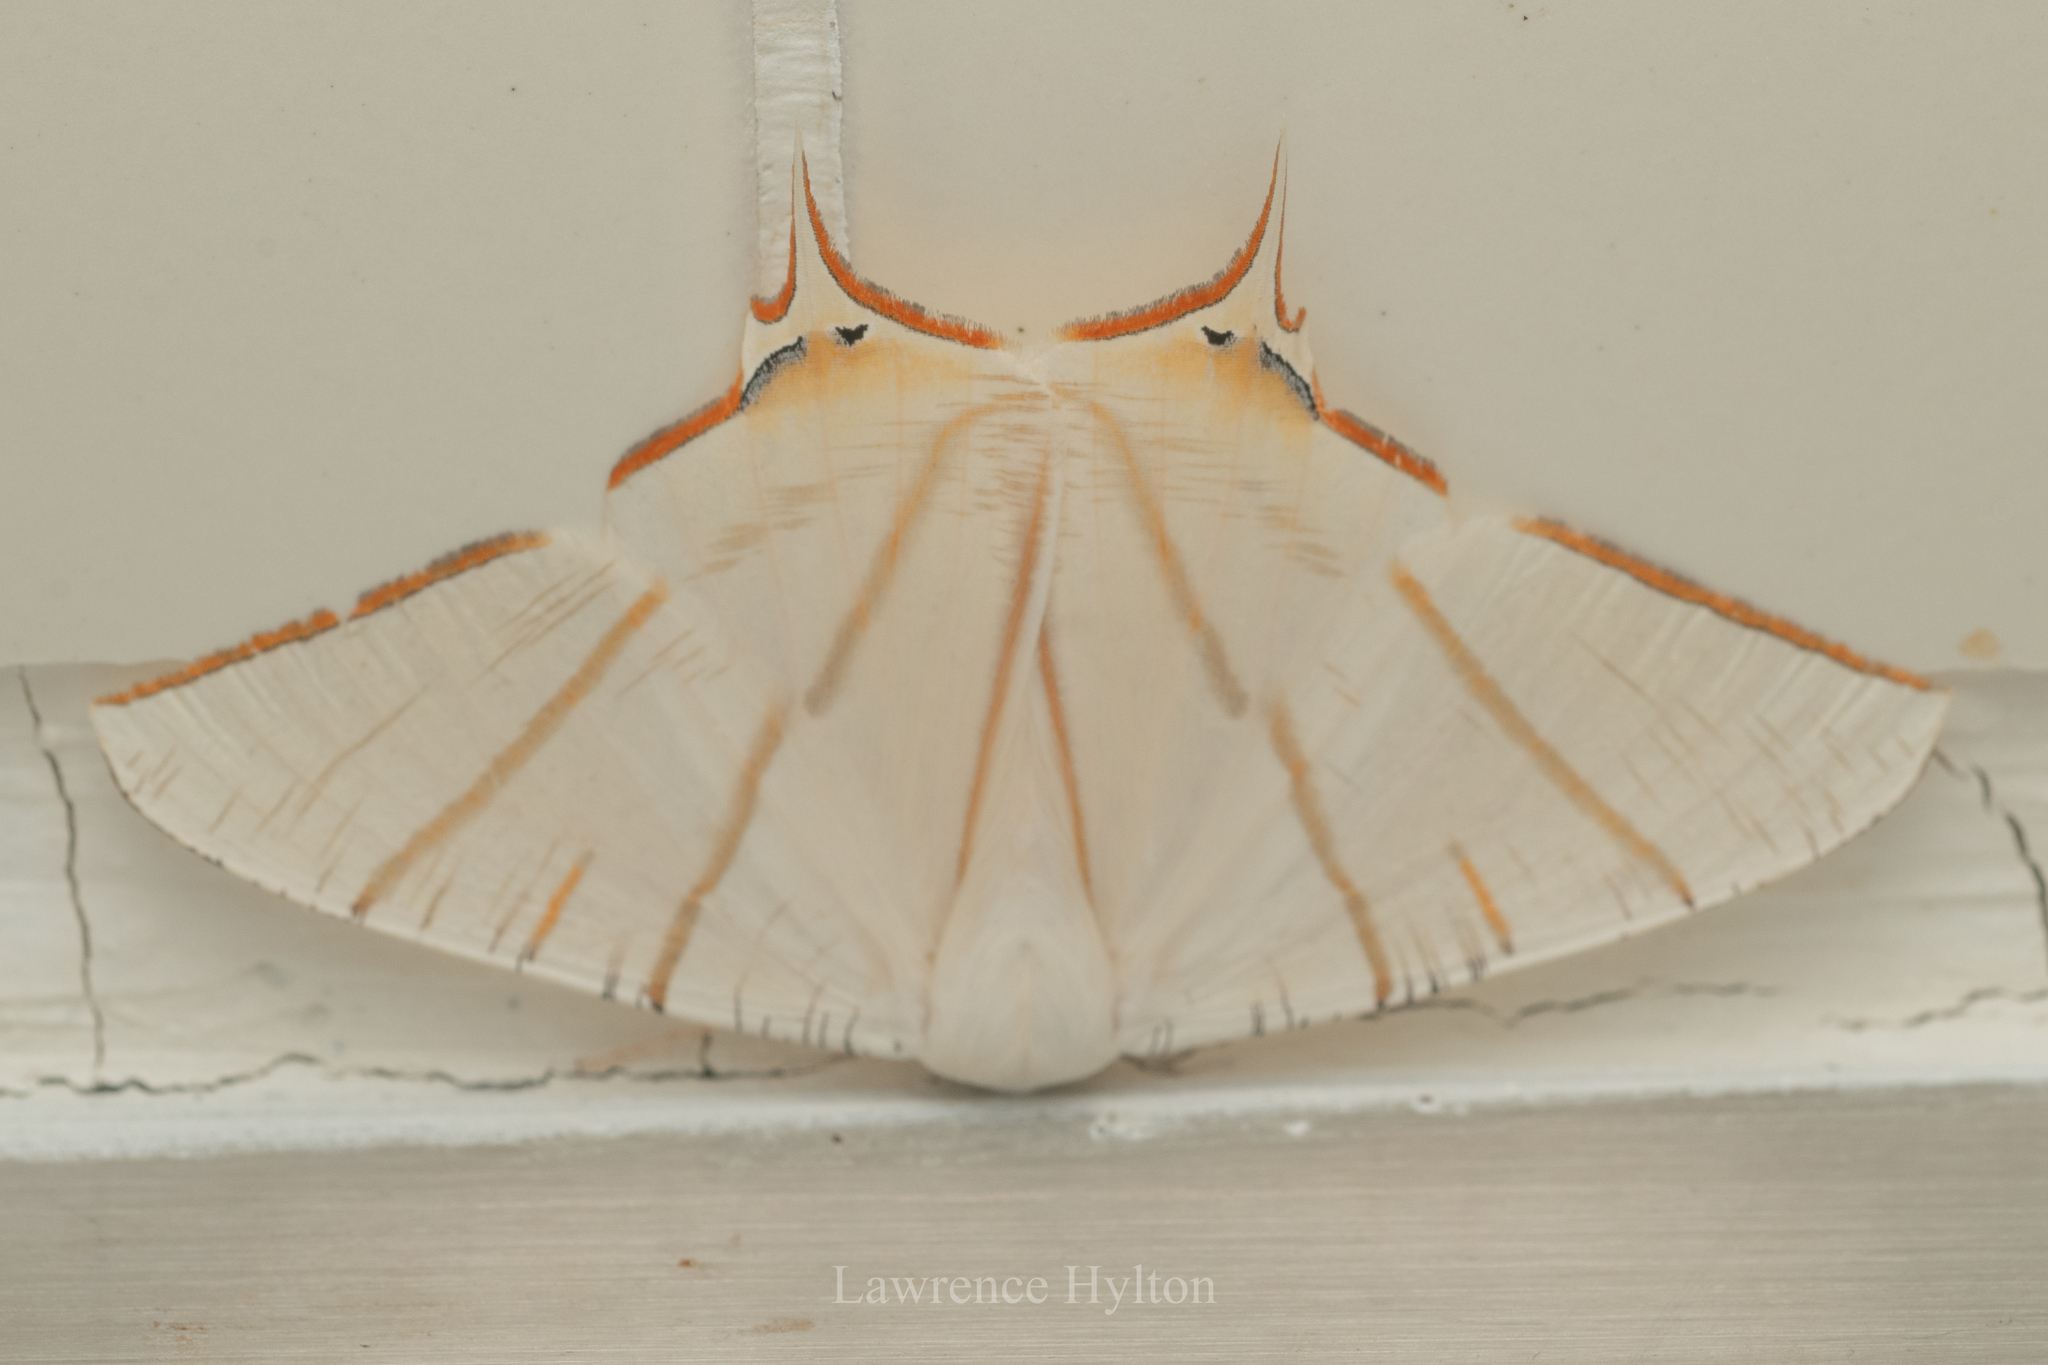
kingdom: Animalia
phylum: Arthropoda
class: Insecta
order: Lepidoptera
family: Geometridae
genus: Ourapteryx
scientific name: Ourapteryx clara
